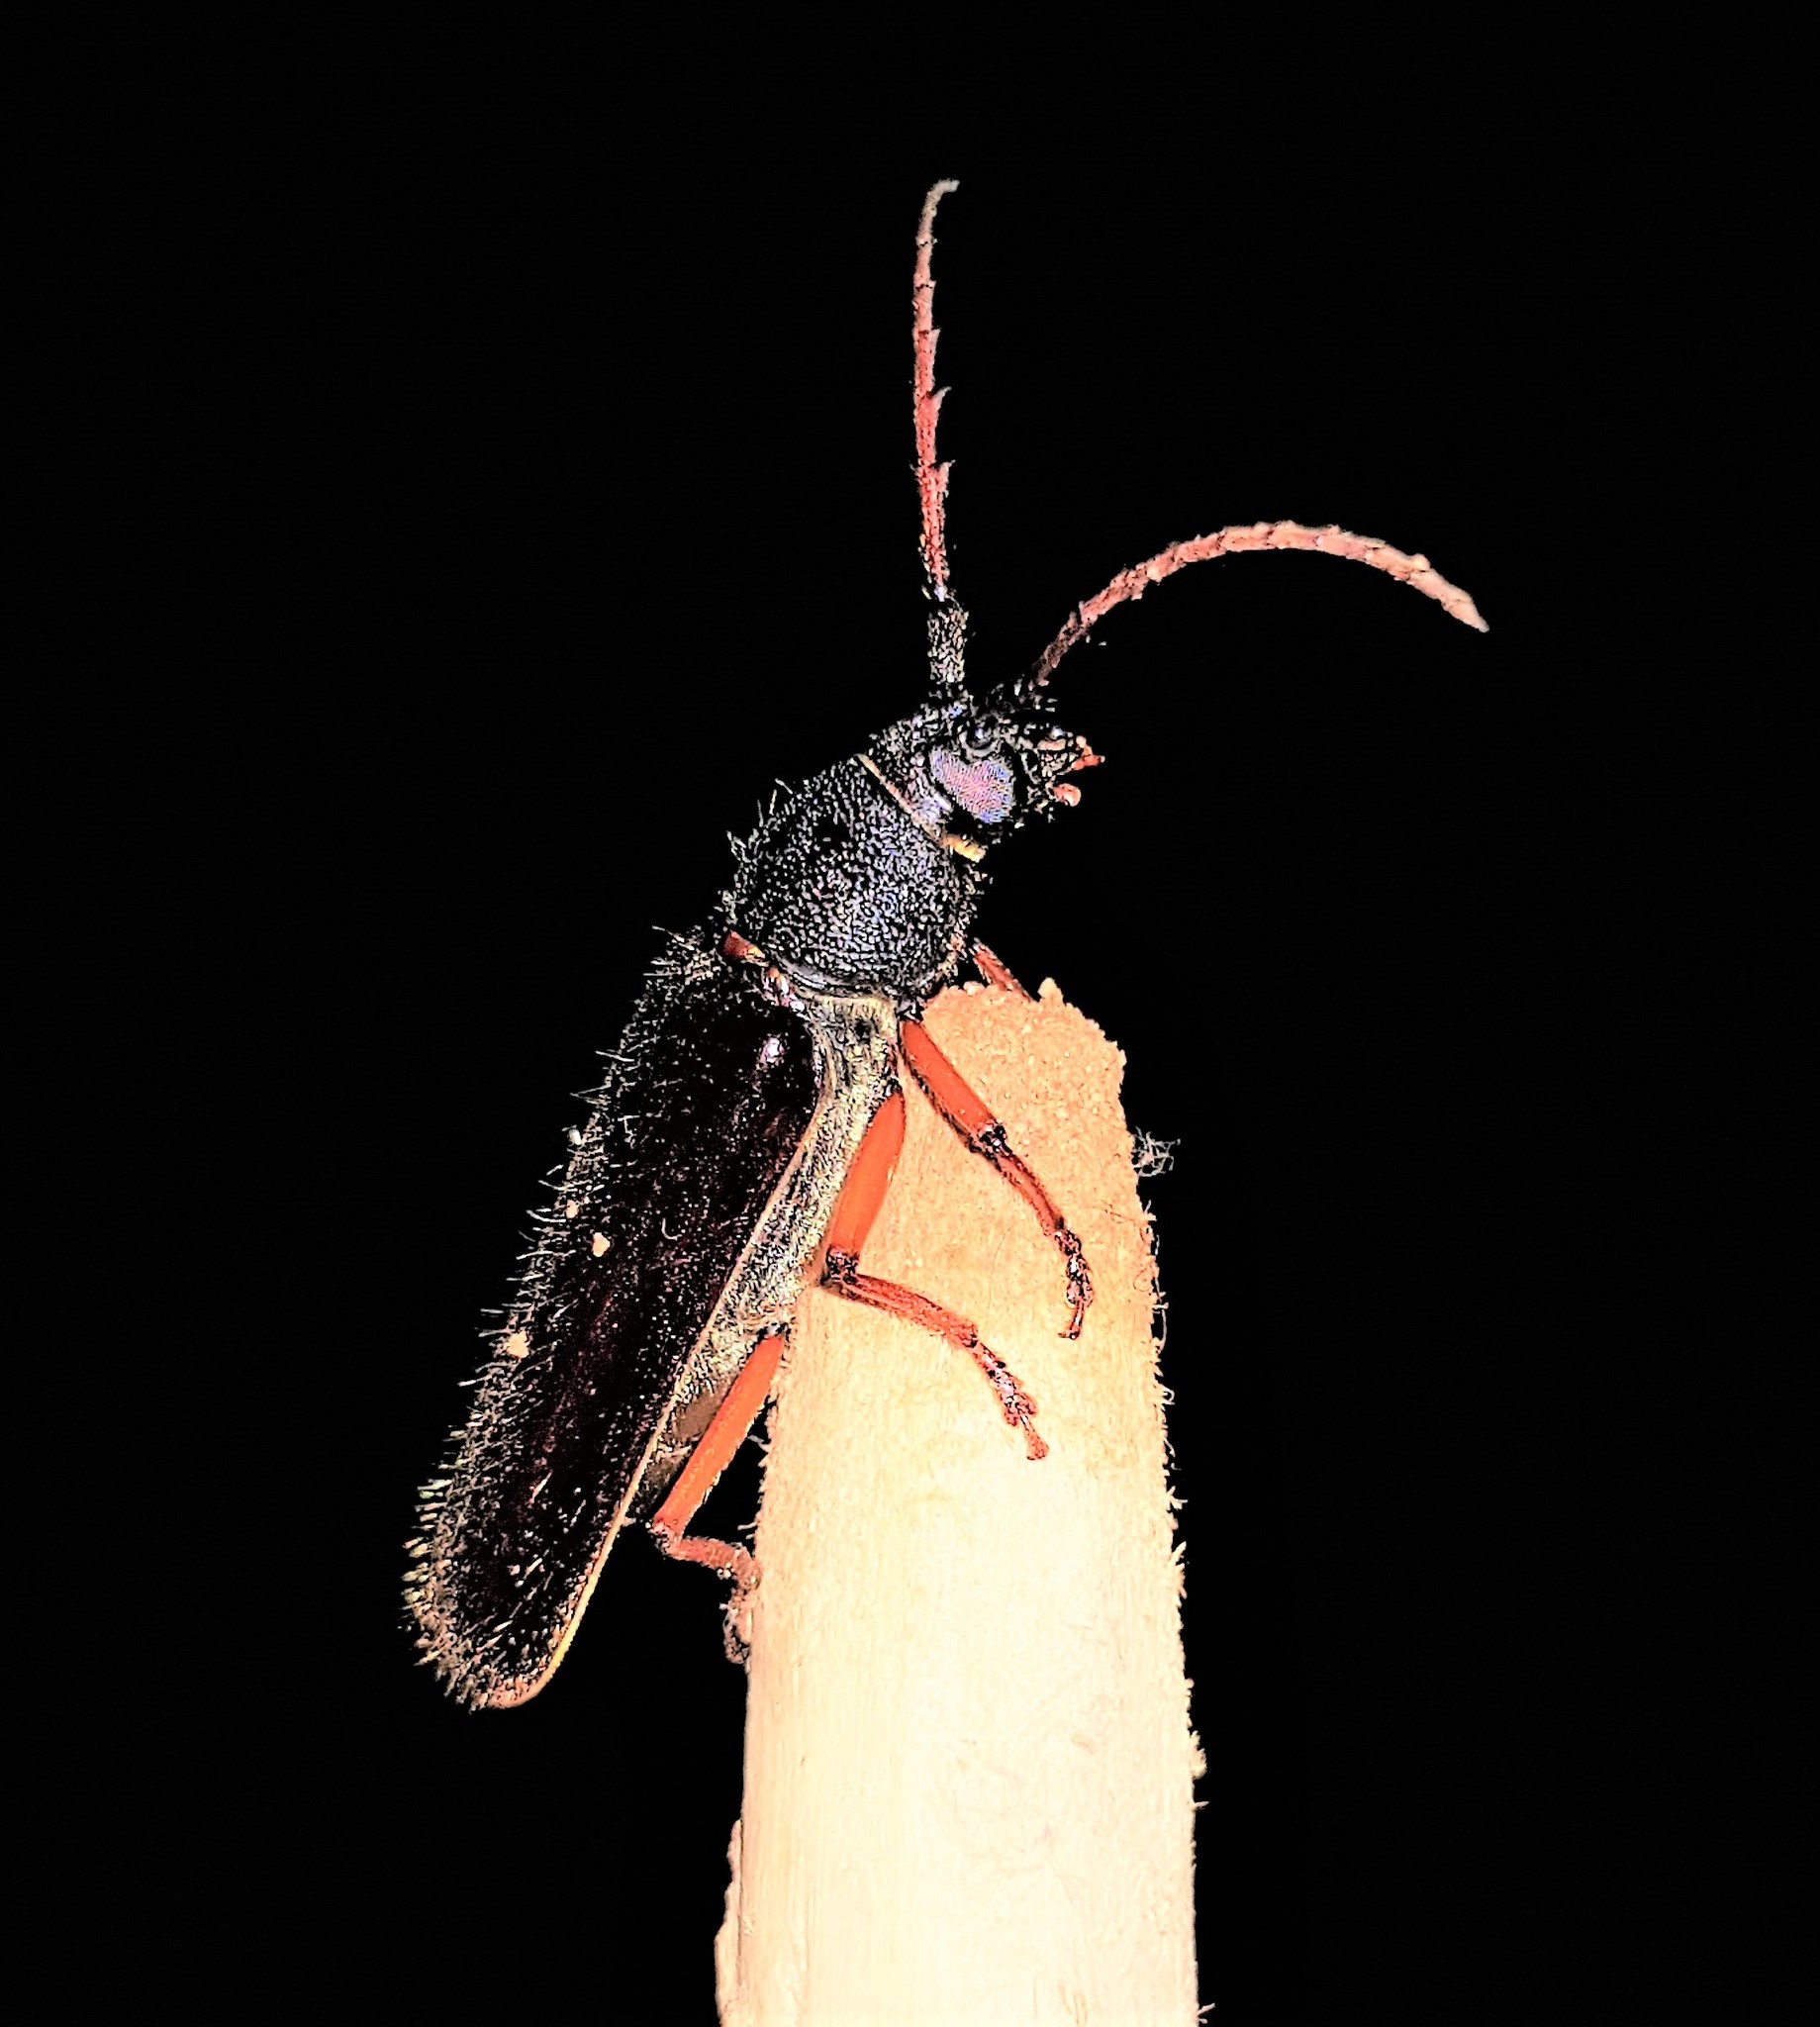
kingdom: Animalia
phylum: Arthropoda
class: Insecta
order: Coleoptera
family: Cerambycidae
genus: Torneucerus
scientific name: Torneucerus armatus
